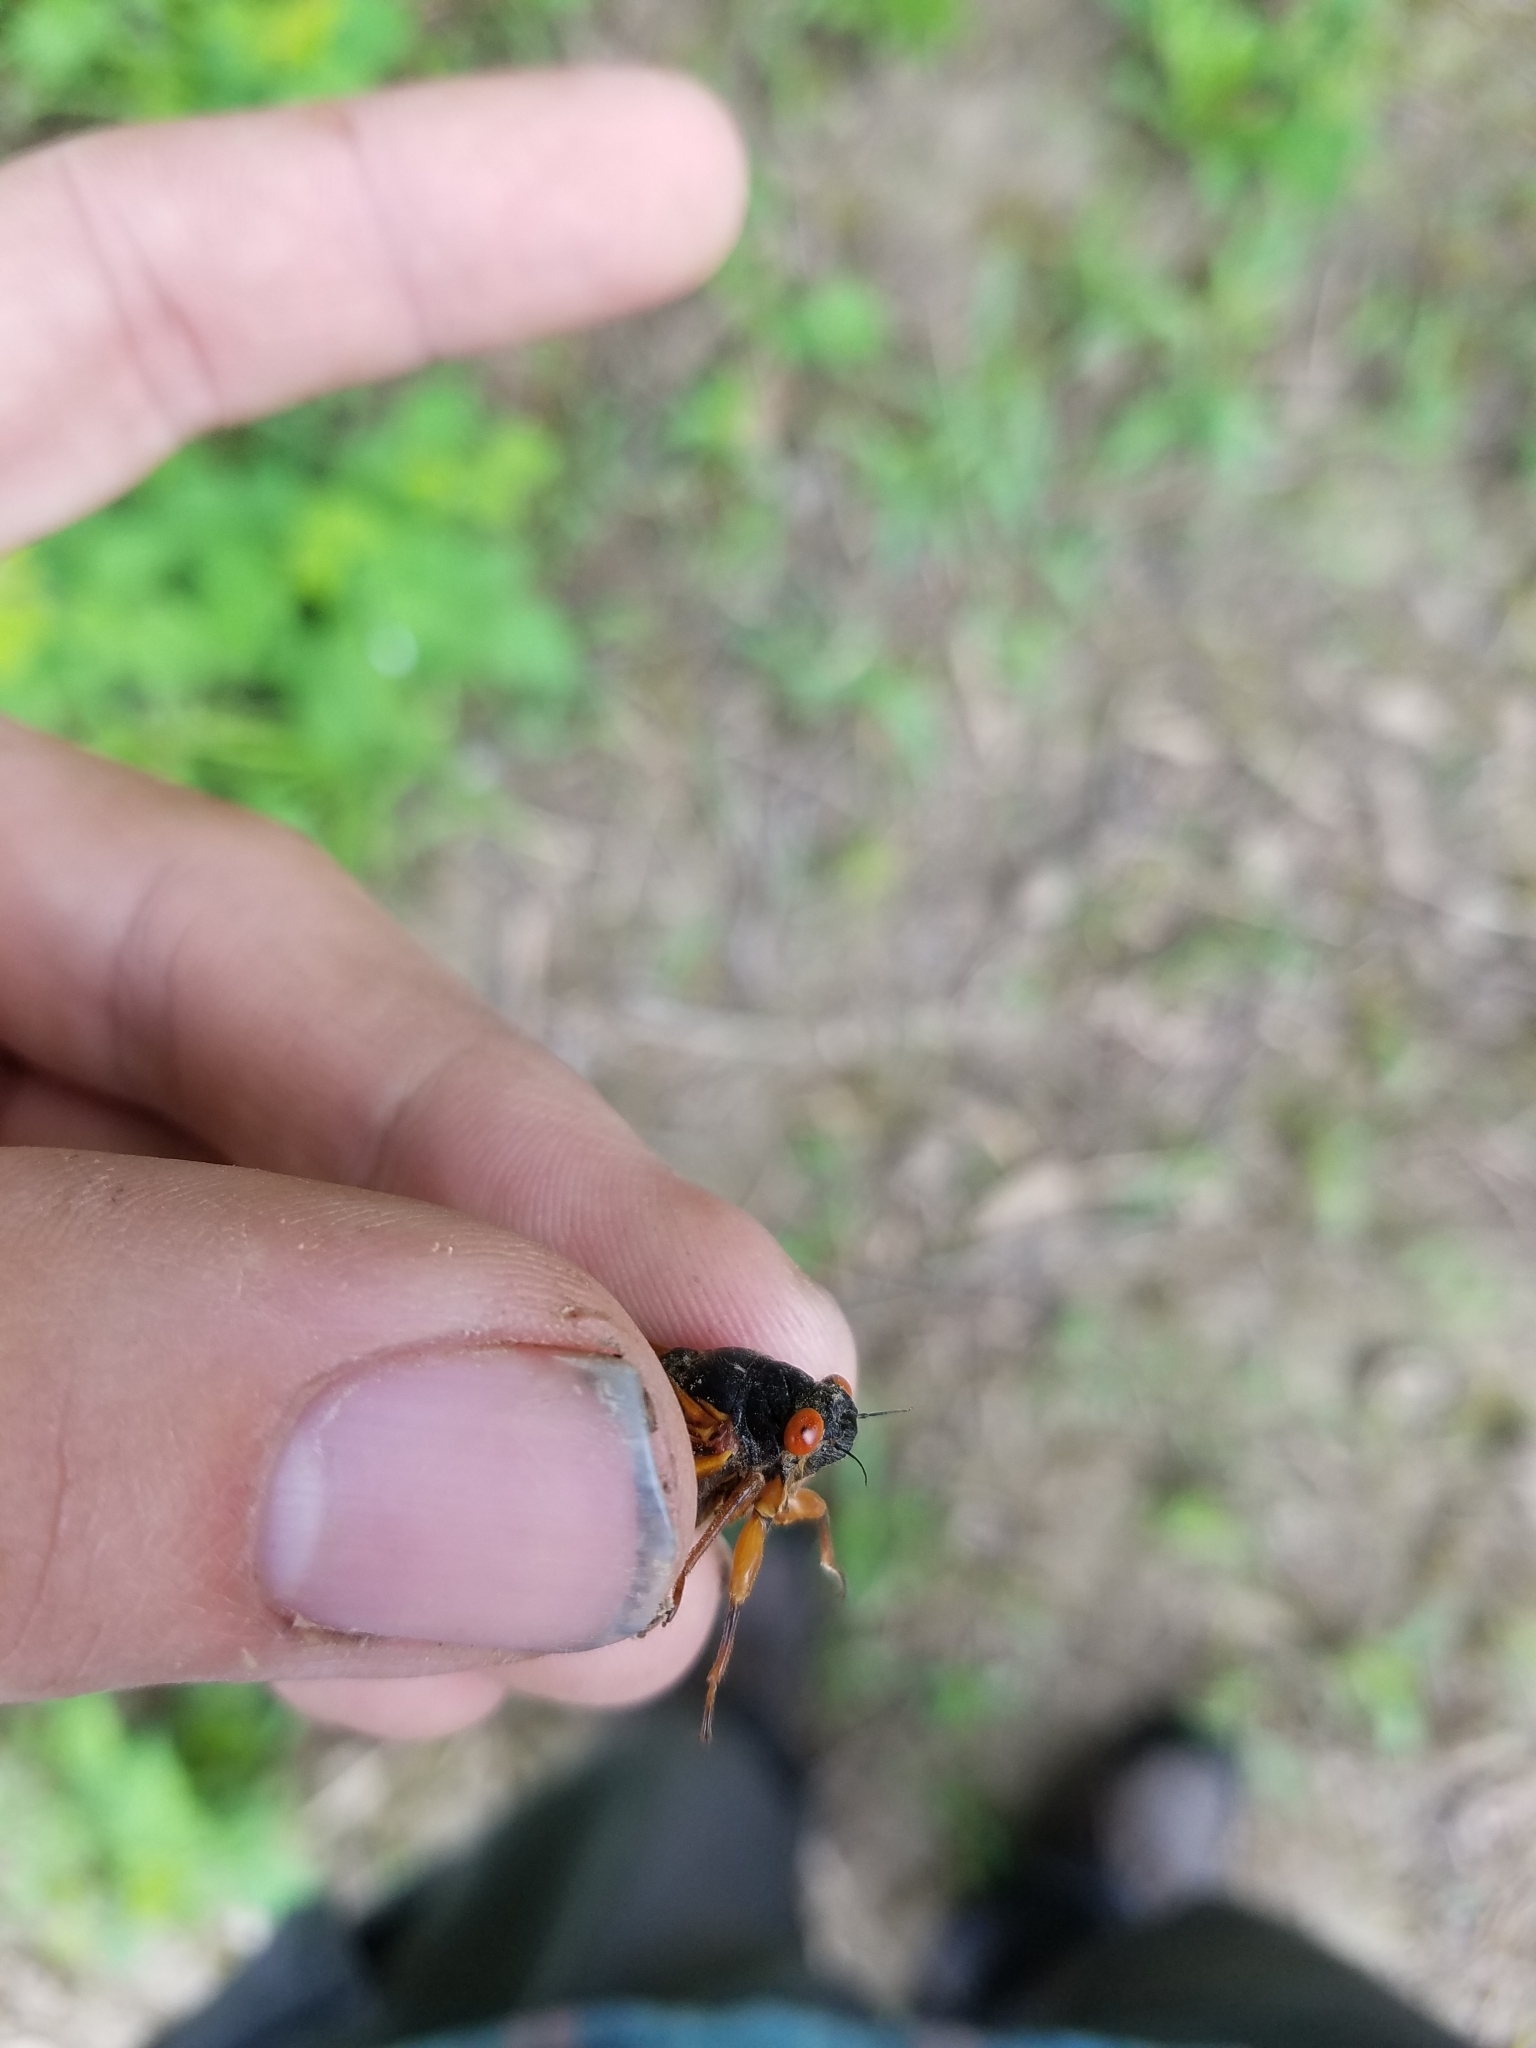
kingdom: Animalia
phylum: Arthropoda
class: Insecta
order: Hemiptera
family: Cicadidae
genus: Magicicada
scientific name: Magicicada cassini
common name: Cassin's 17-year cicada
